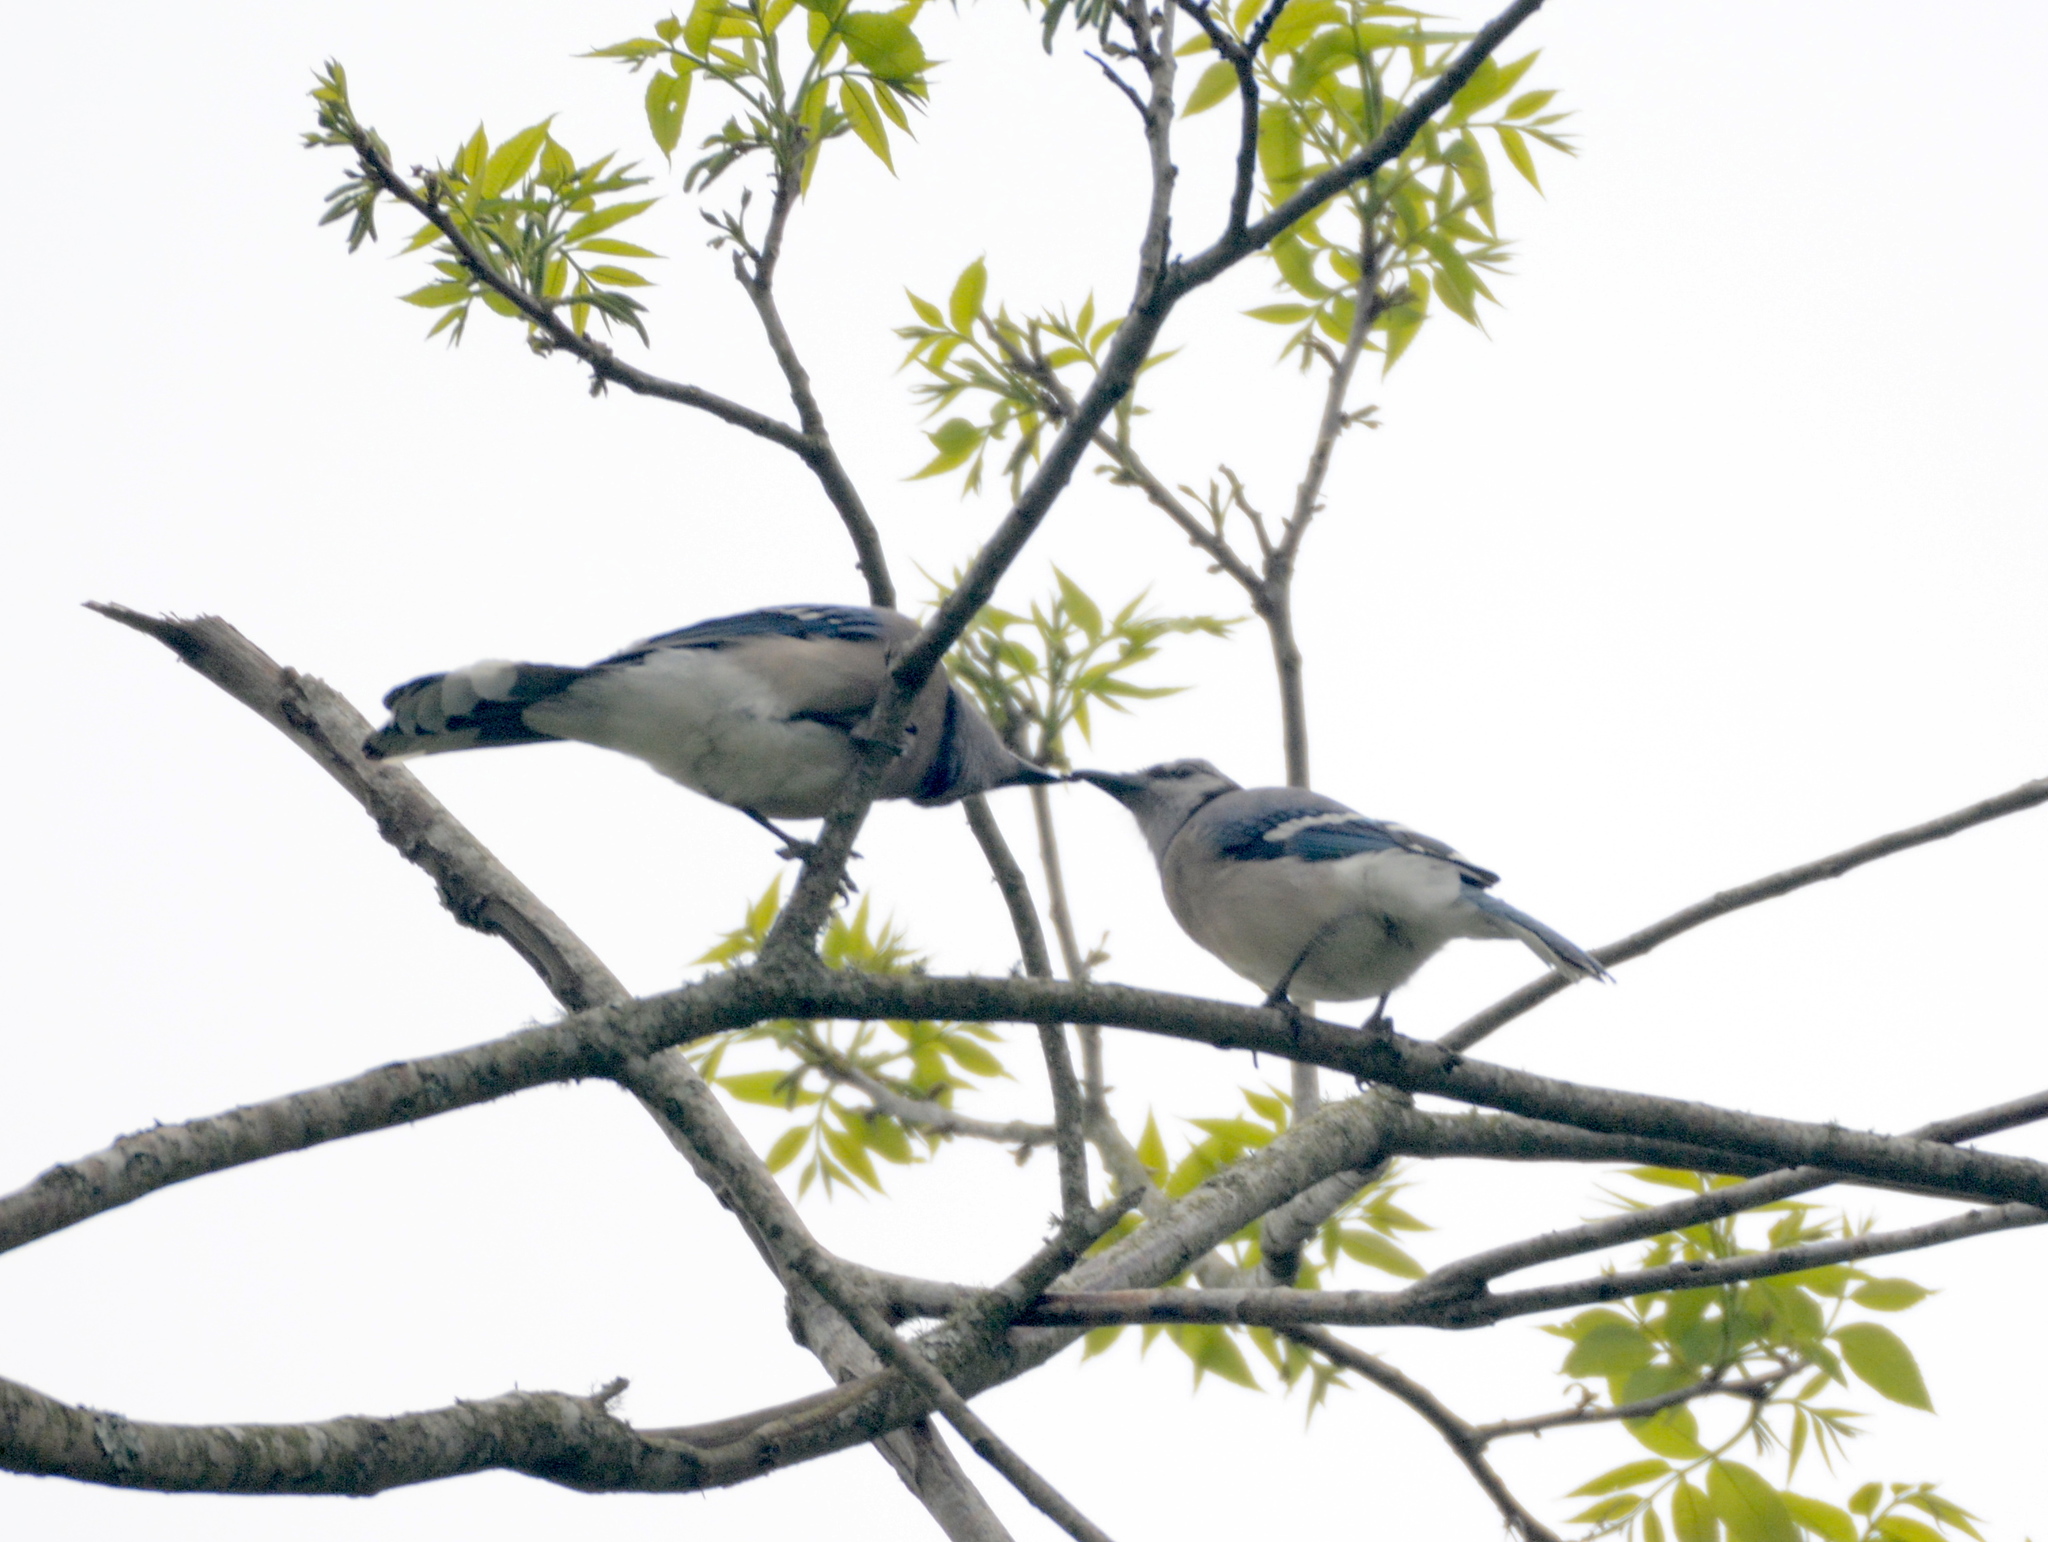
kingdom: Animalia
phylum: Chordata
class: Aves
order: Passeriformes
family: Corvidae
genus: Cyanocitta
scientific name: Cyanocitta cristata
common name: Blue jay
